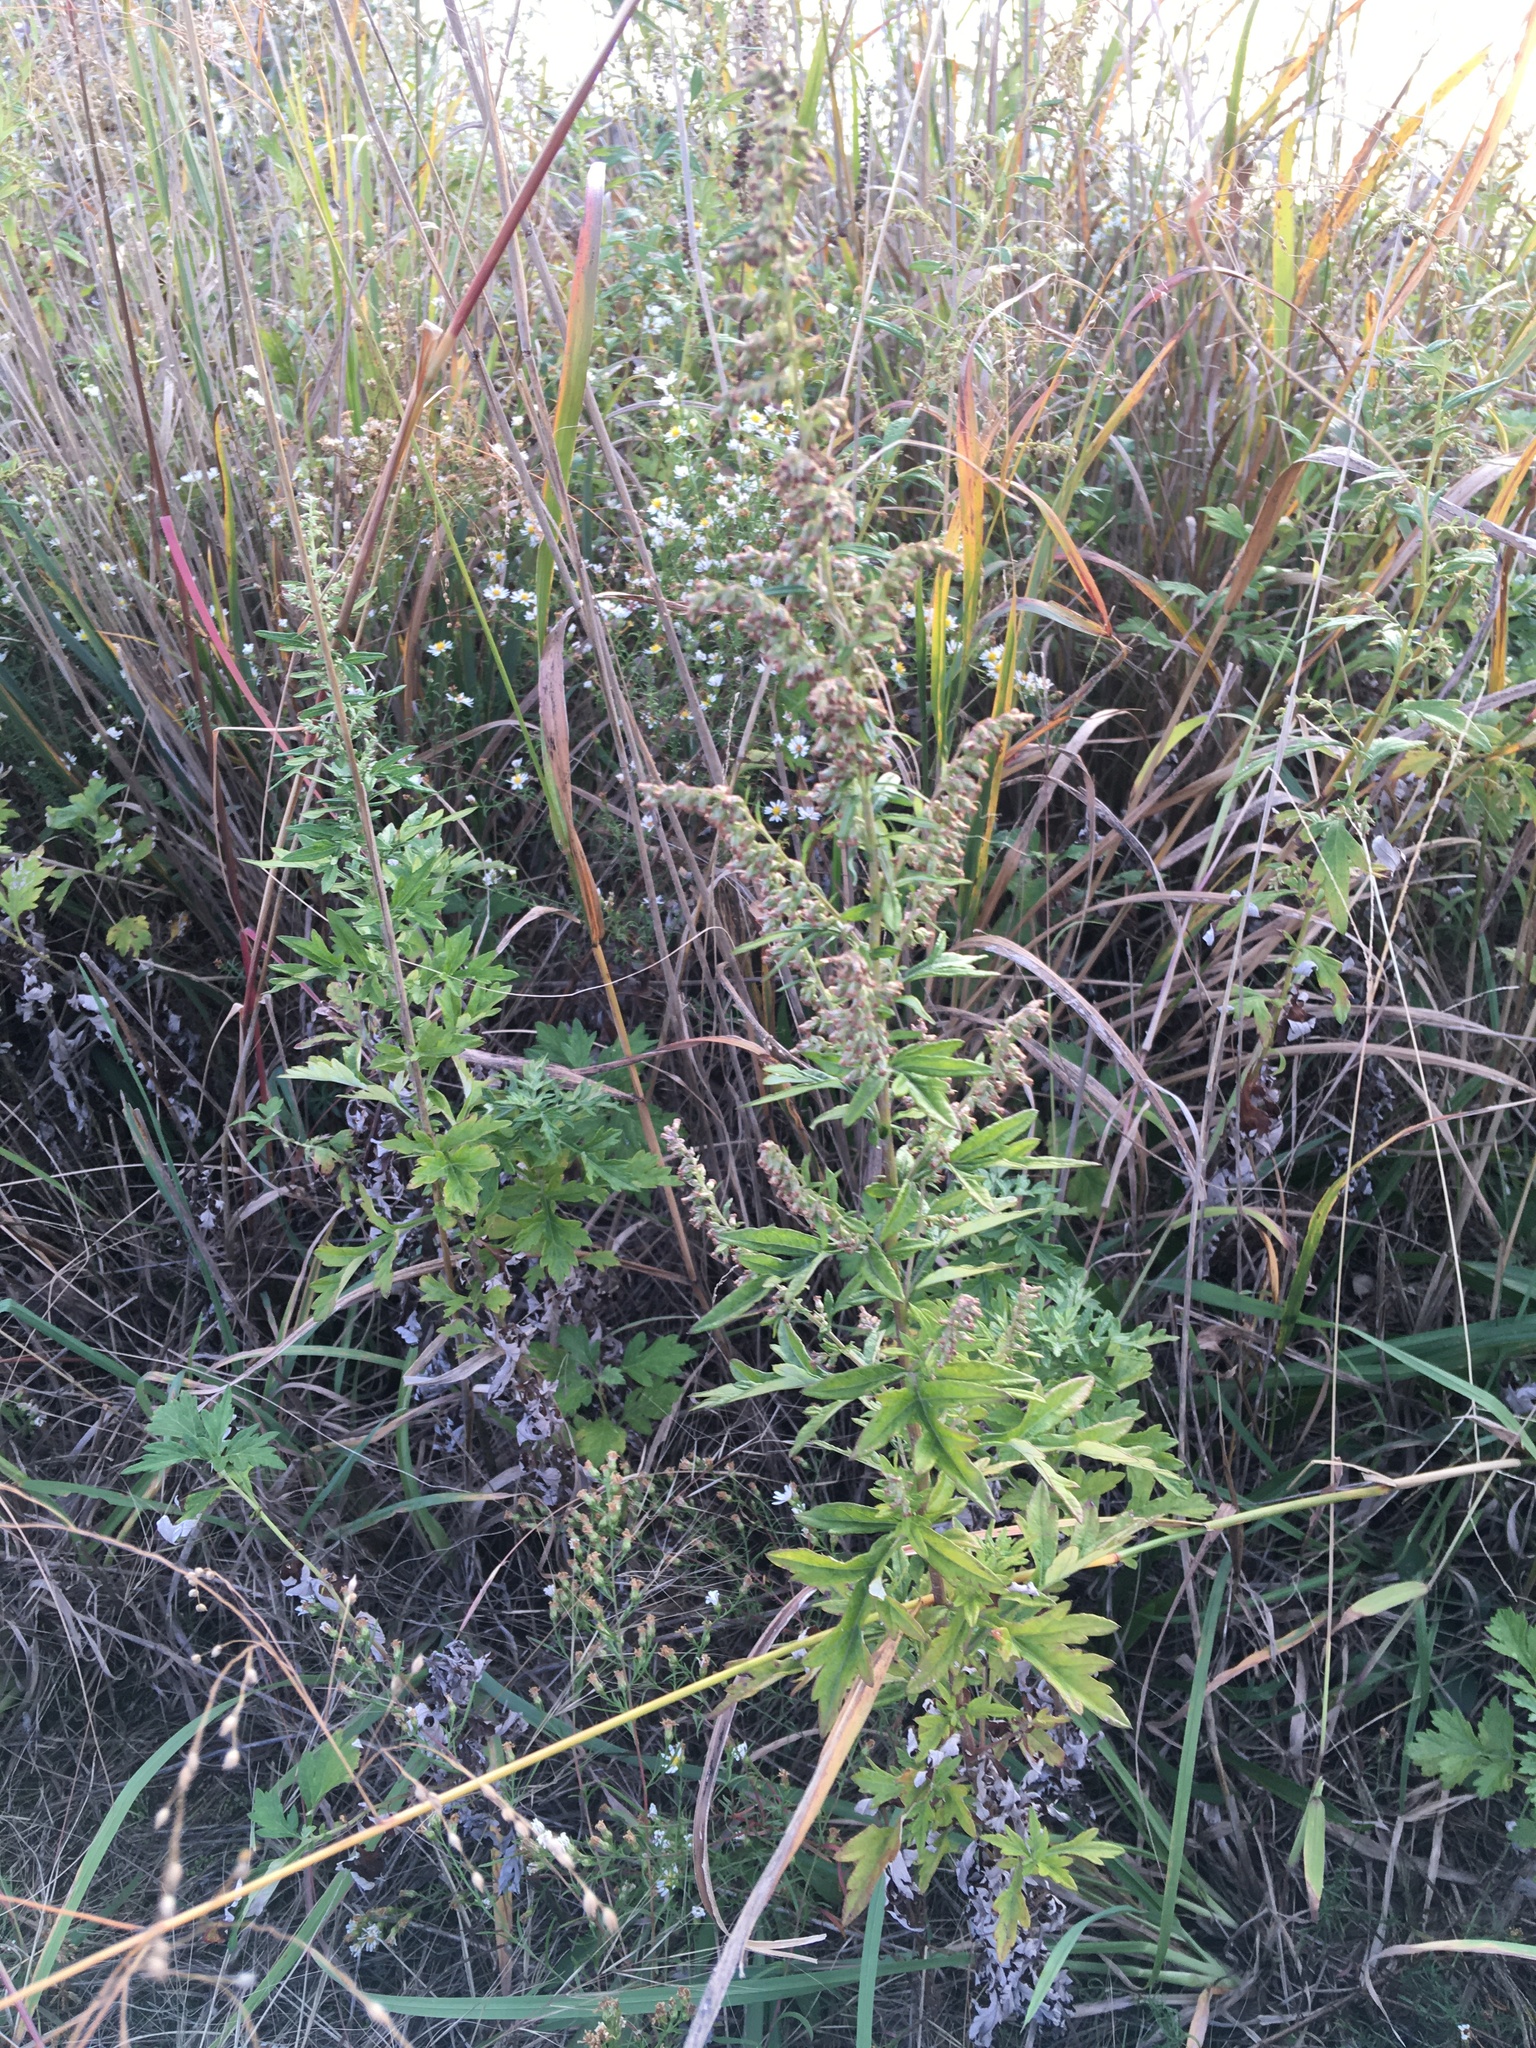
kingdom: Plantae
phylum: Tracheophyta
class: Magnoliopsida
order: Asterales
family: Asteraceae
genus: Artemisia
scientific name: Artemisia vulgaris
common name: Mugwort
